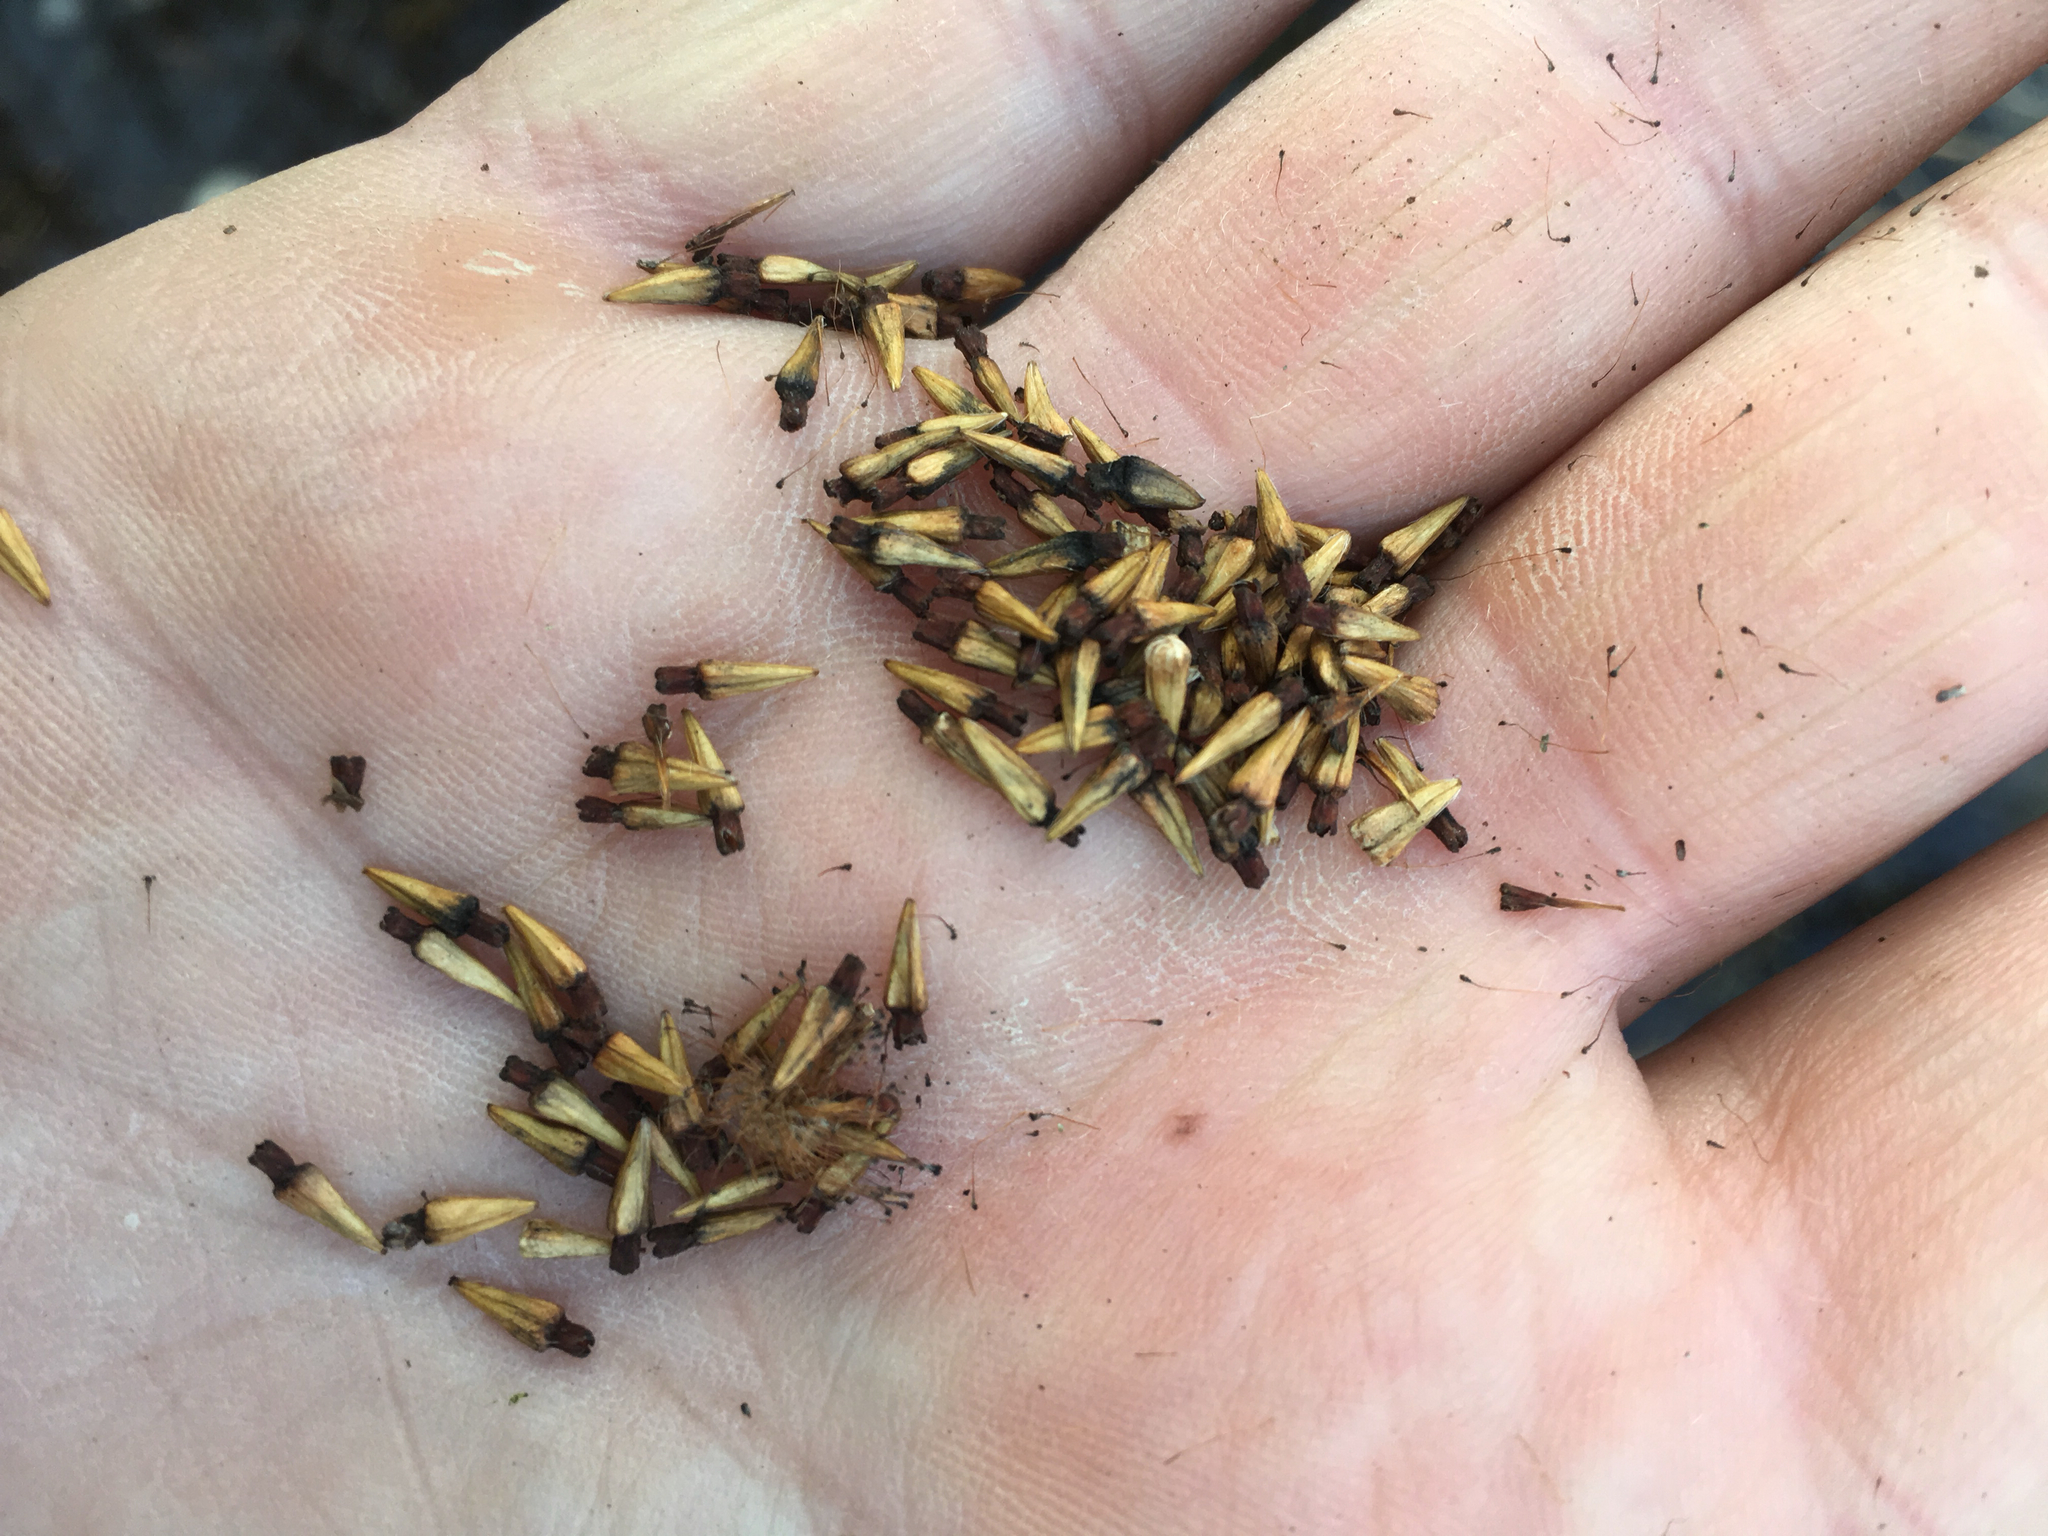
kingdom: Plantae
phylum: Tracheophyta
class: Magnoliopsida
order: Gentianales
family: Rubiaceae
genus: Cephalanthus
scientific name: Cephalanthus occidentalis
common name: Button-willow
